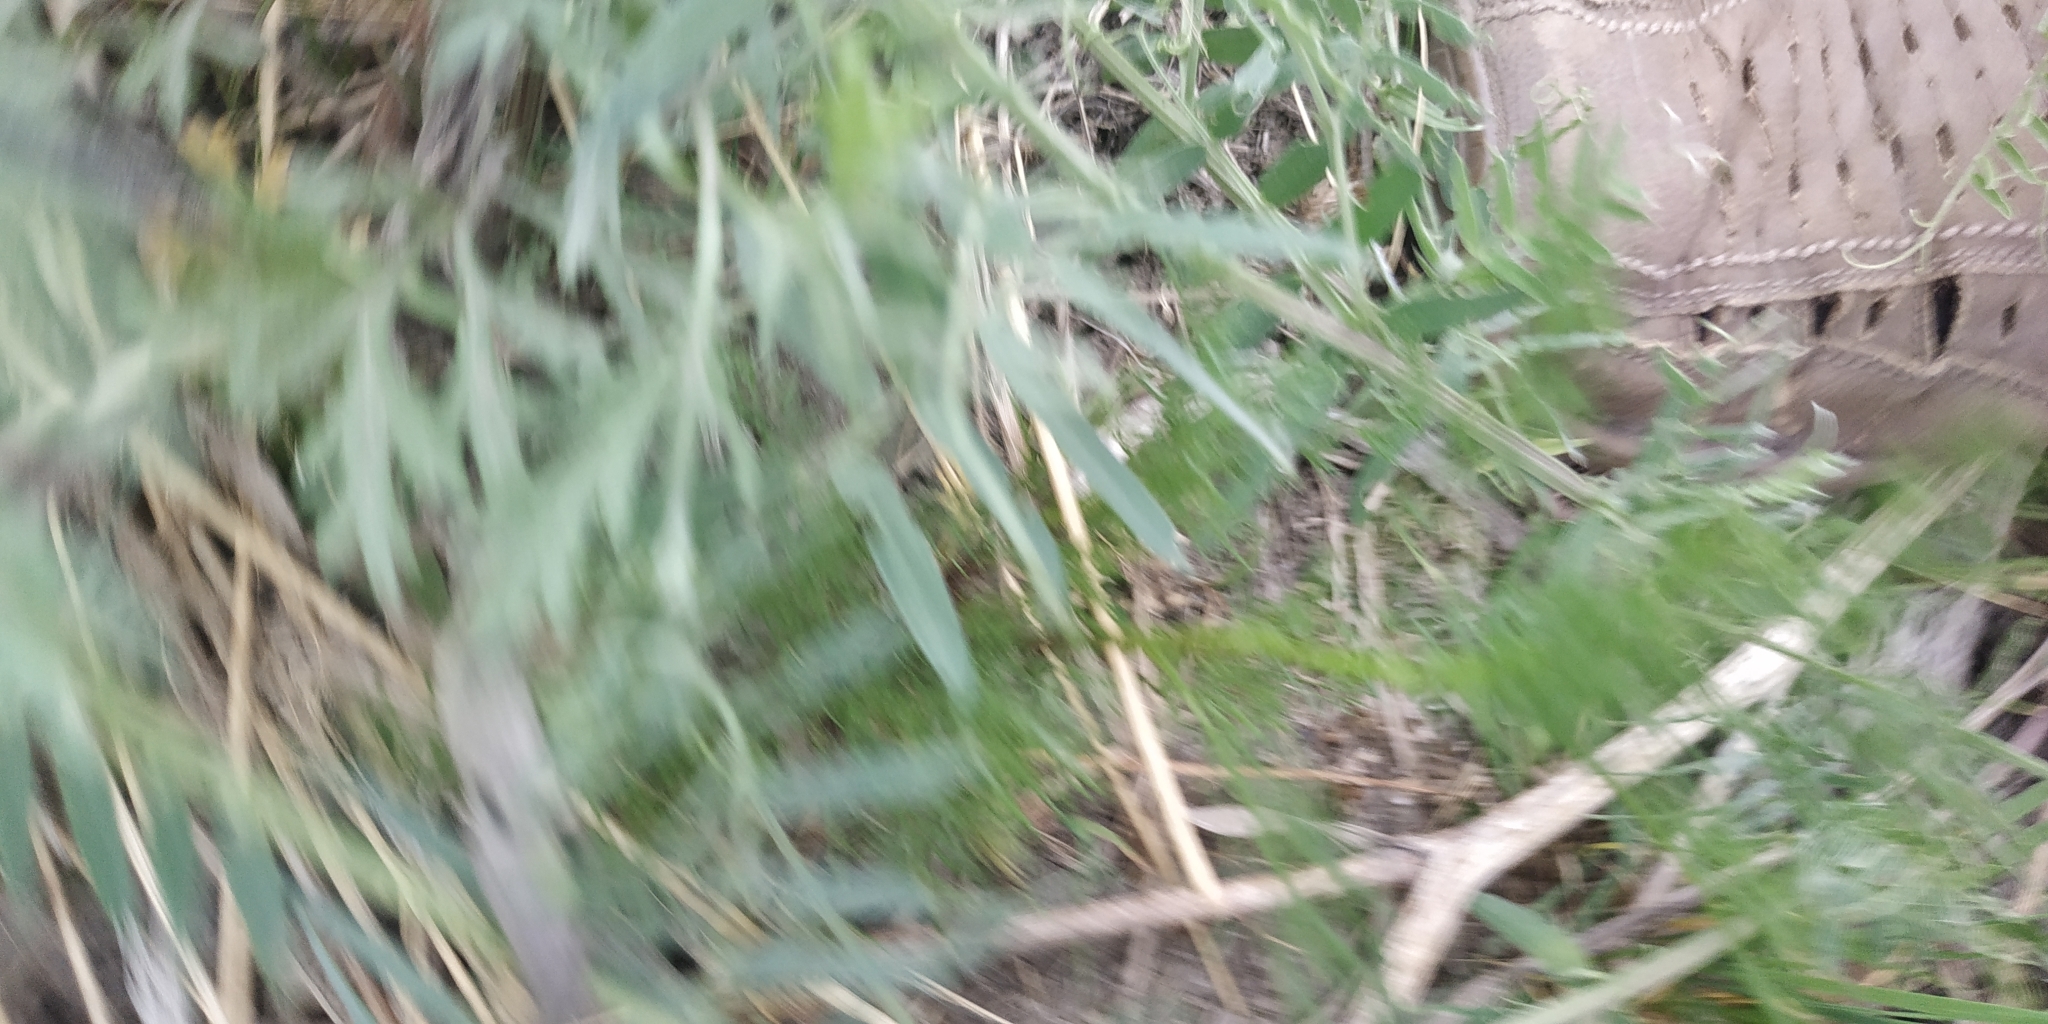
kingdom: Plantae
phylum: Tracheophyta
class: Magnoliopsida
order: Fabales
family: Fabaceae
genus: Vicia
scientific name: Vicia cracca
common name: Bird vetch
